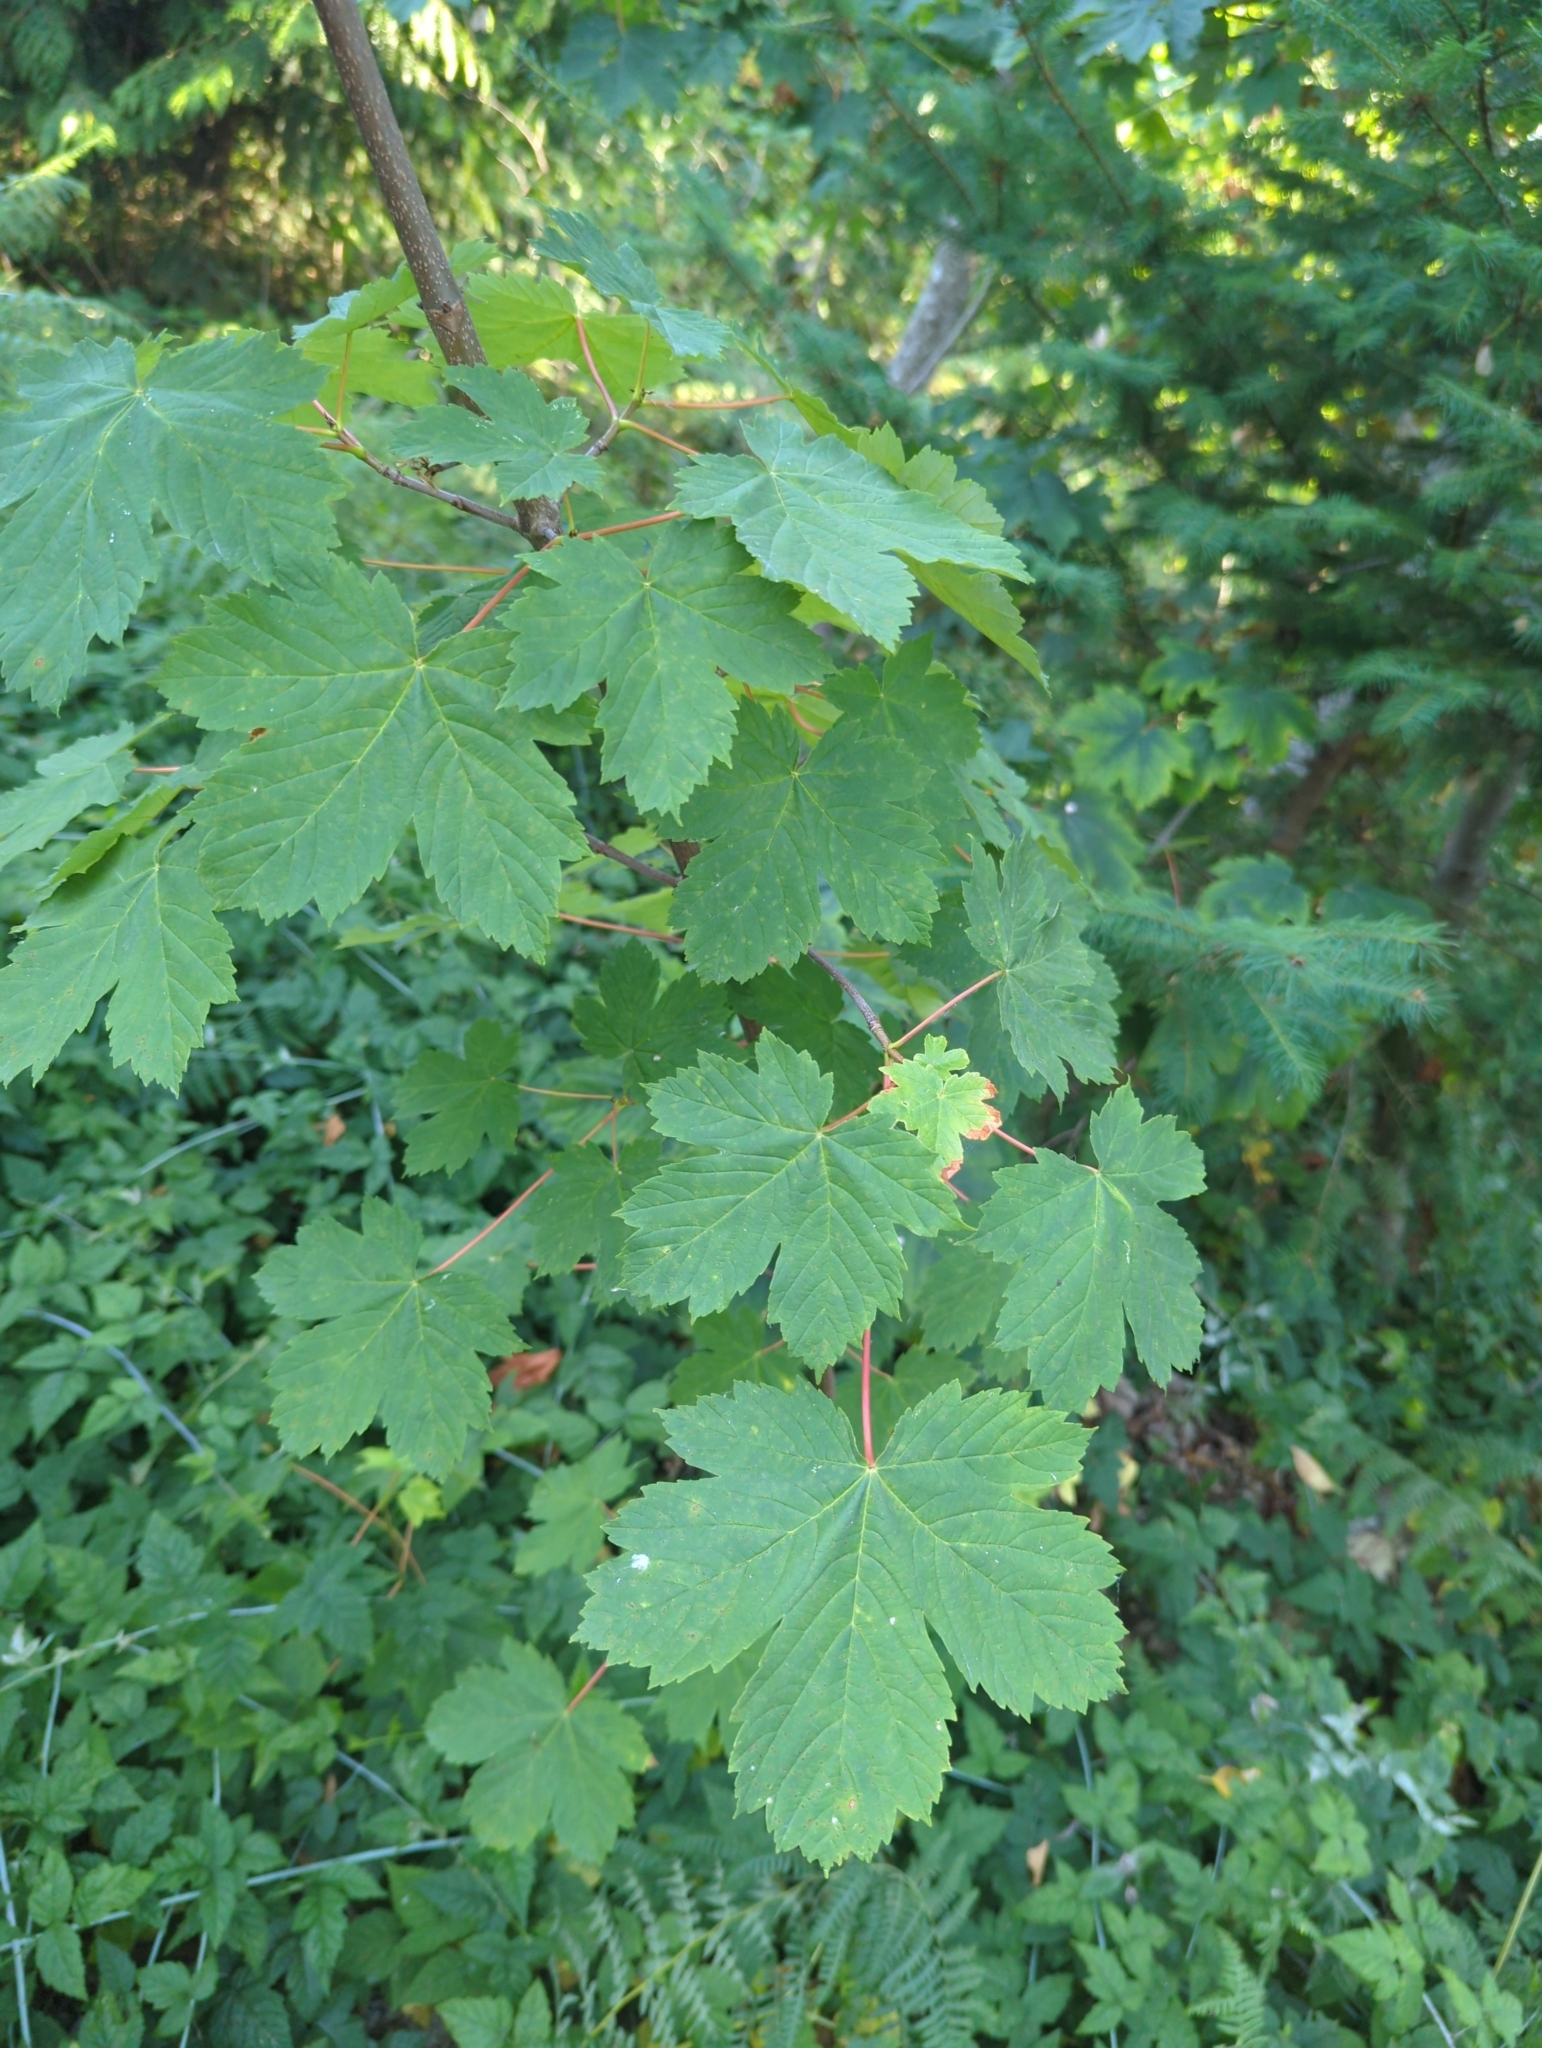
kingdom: Plantae
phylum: Tracheophyta
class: Magnoliopsida
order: Sapindales
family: Sapindaceae
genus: Acer
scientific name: Acer glabrum
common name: Rocky mountain maple
